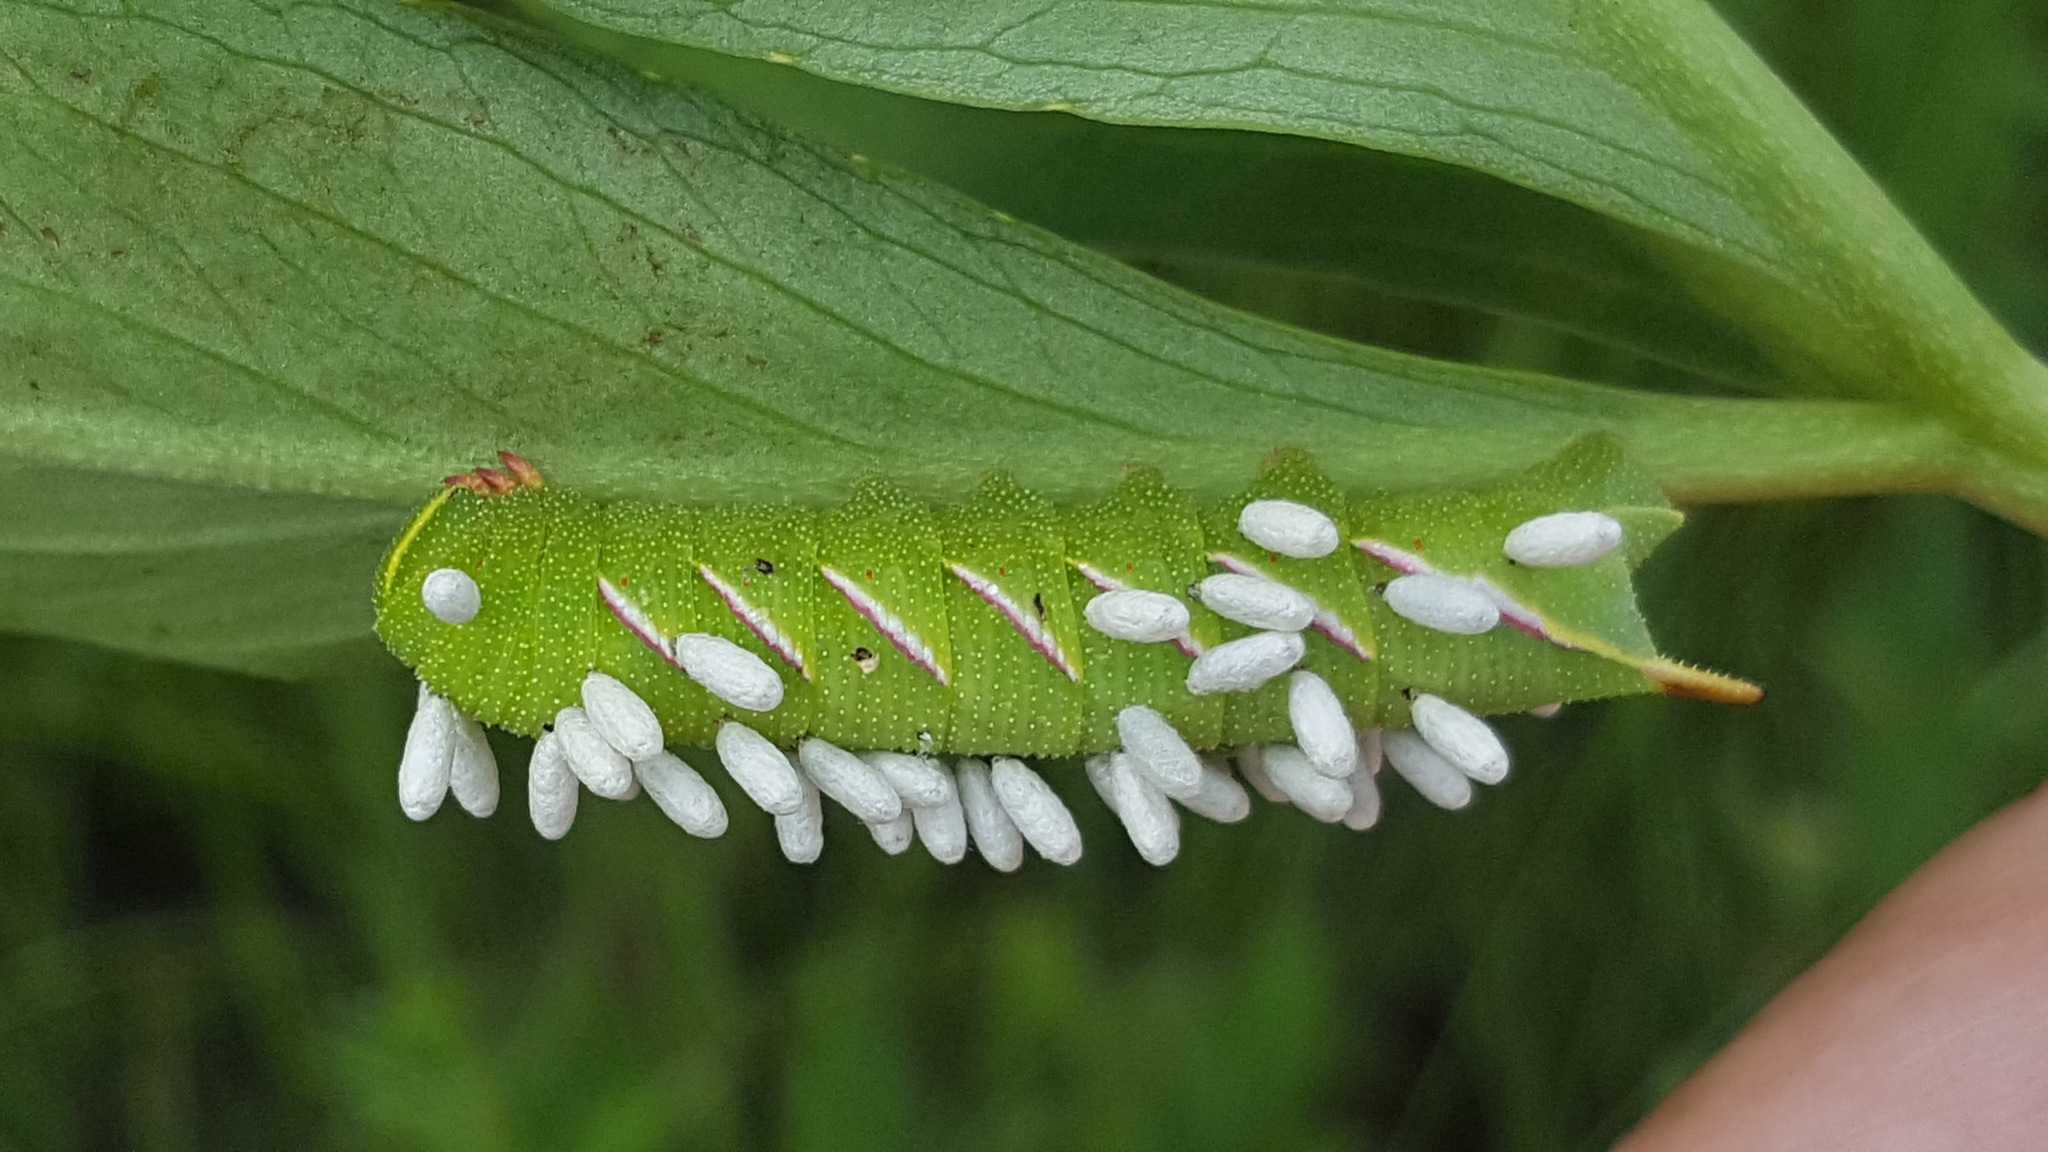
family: Polydnaviriformidae
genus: Bracoviriform
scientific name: Bracoviriform congregatae
